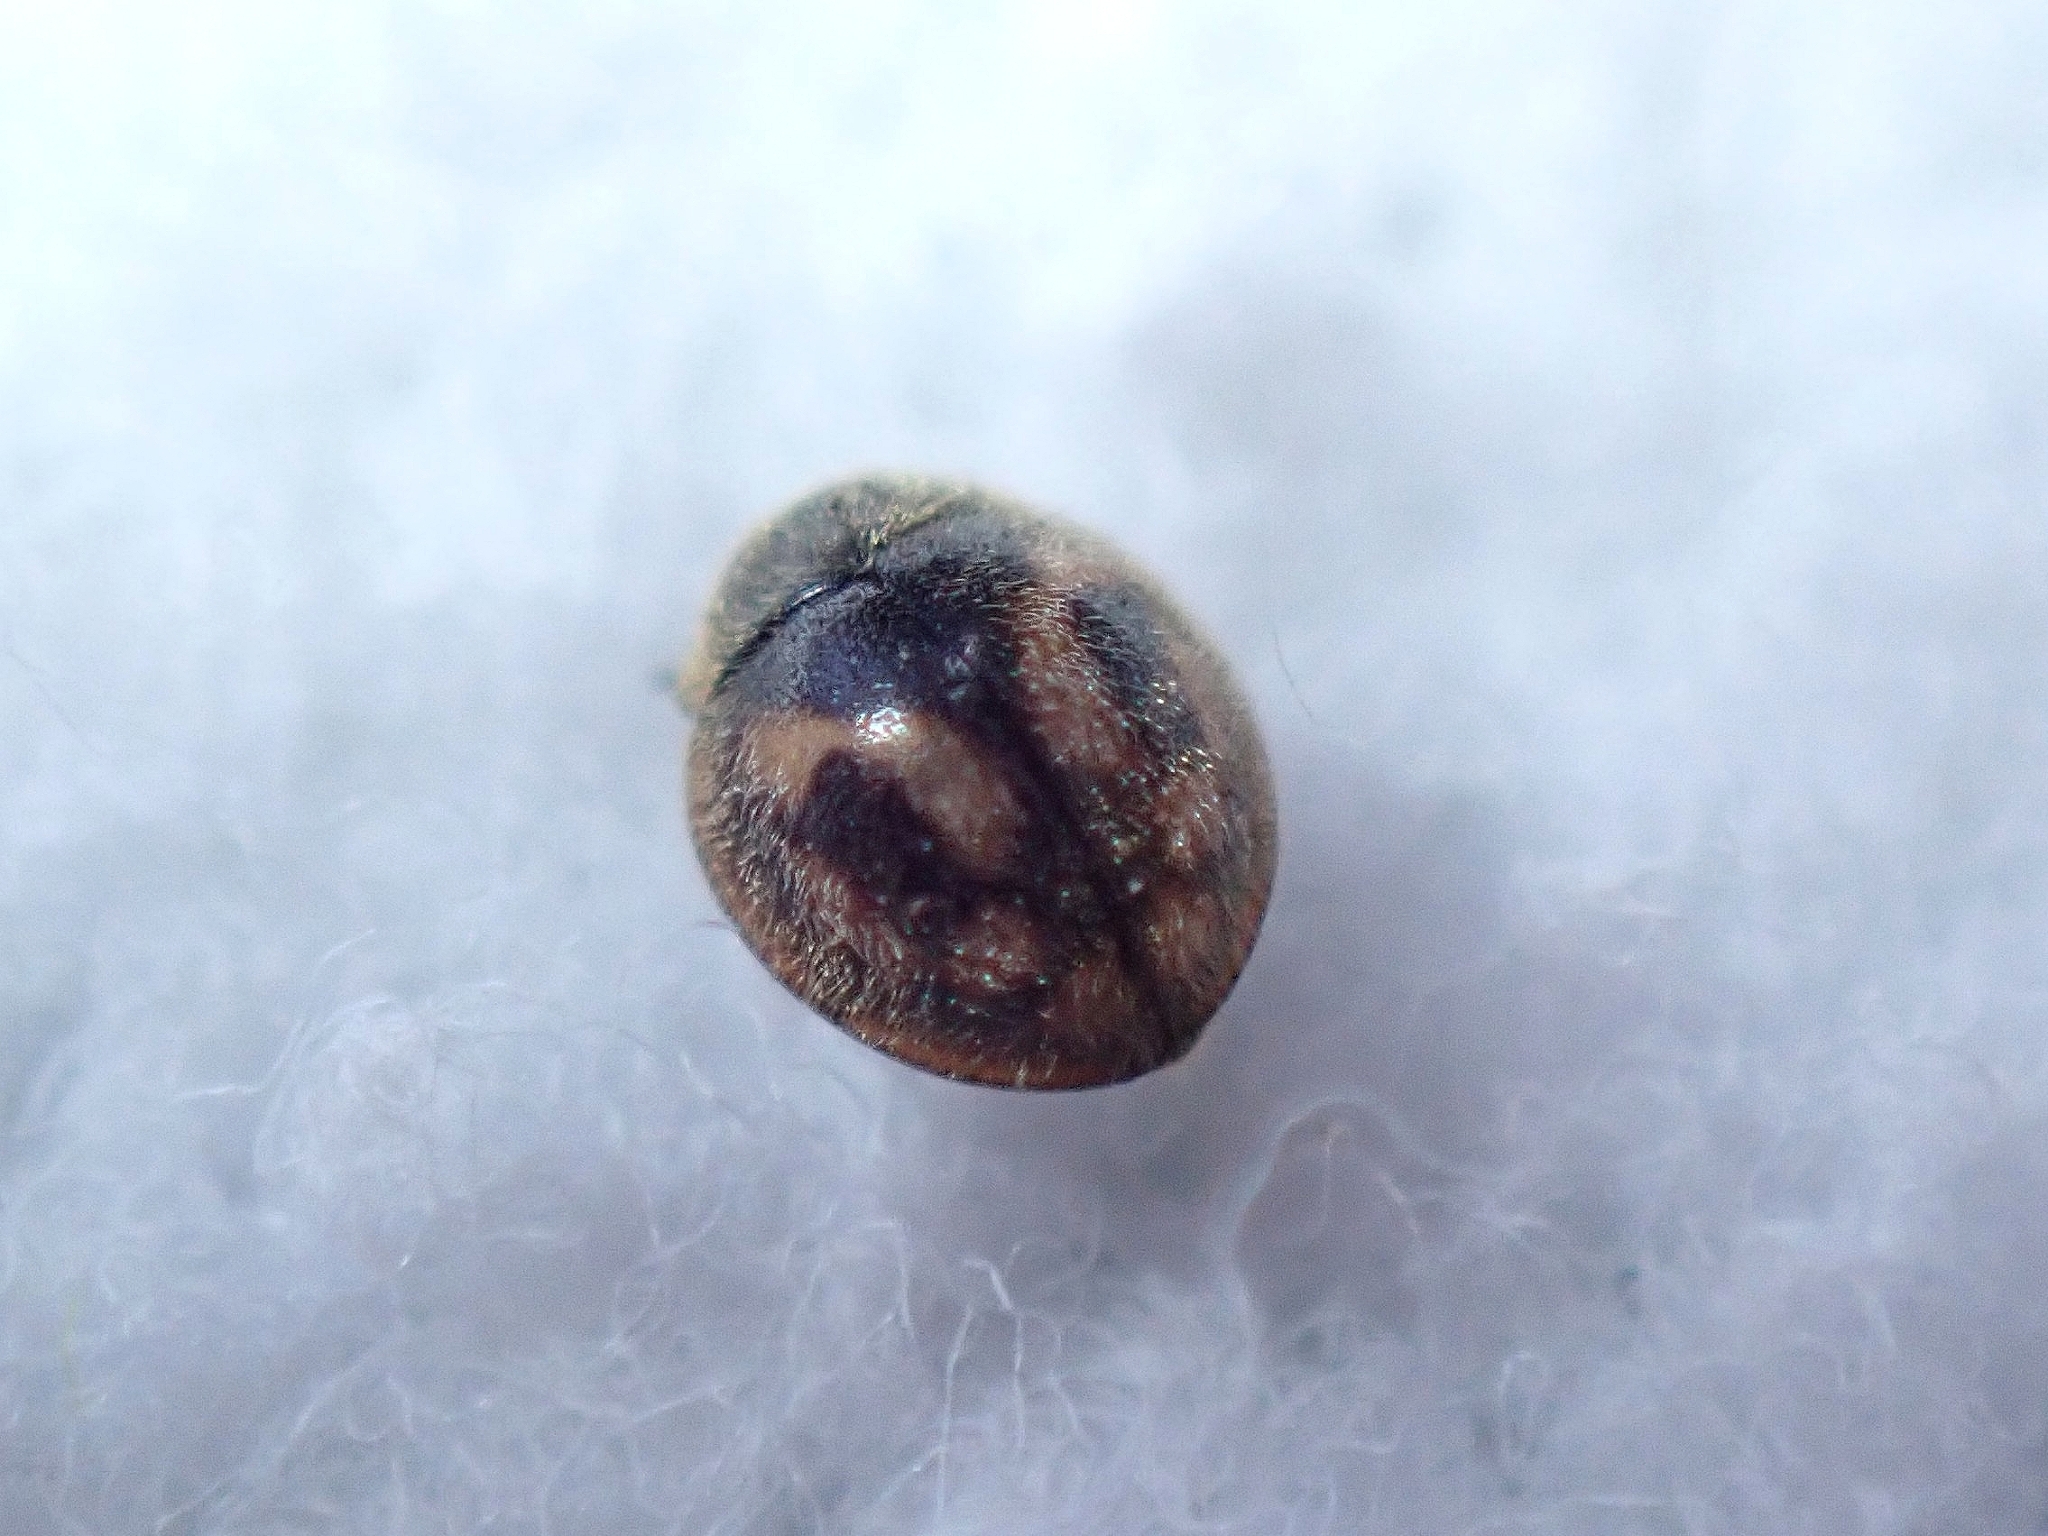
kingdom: Animalia
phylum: Arthropoda
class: Insecta
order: Coleoptera
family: Coccinellidae
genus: Pharoscymnus
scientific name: Pharoscymnus decemplagiatus
